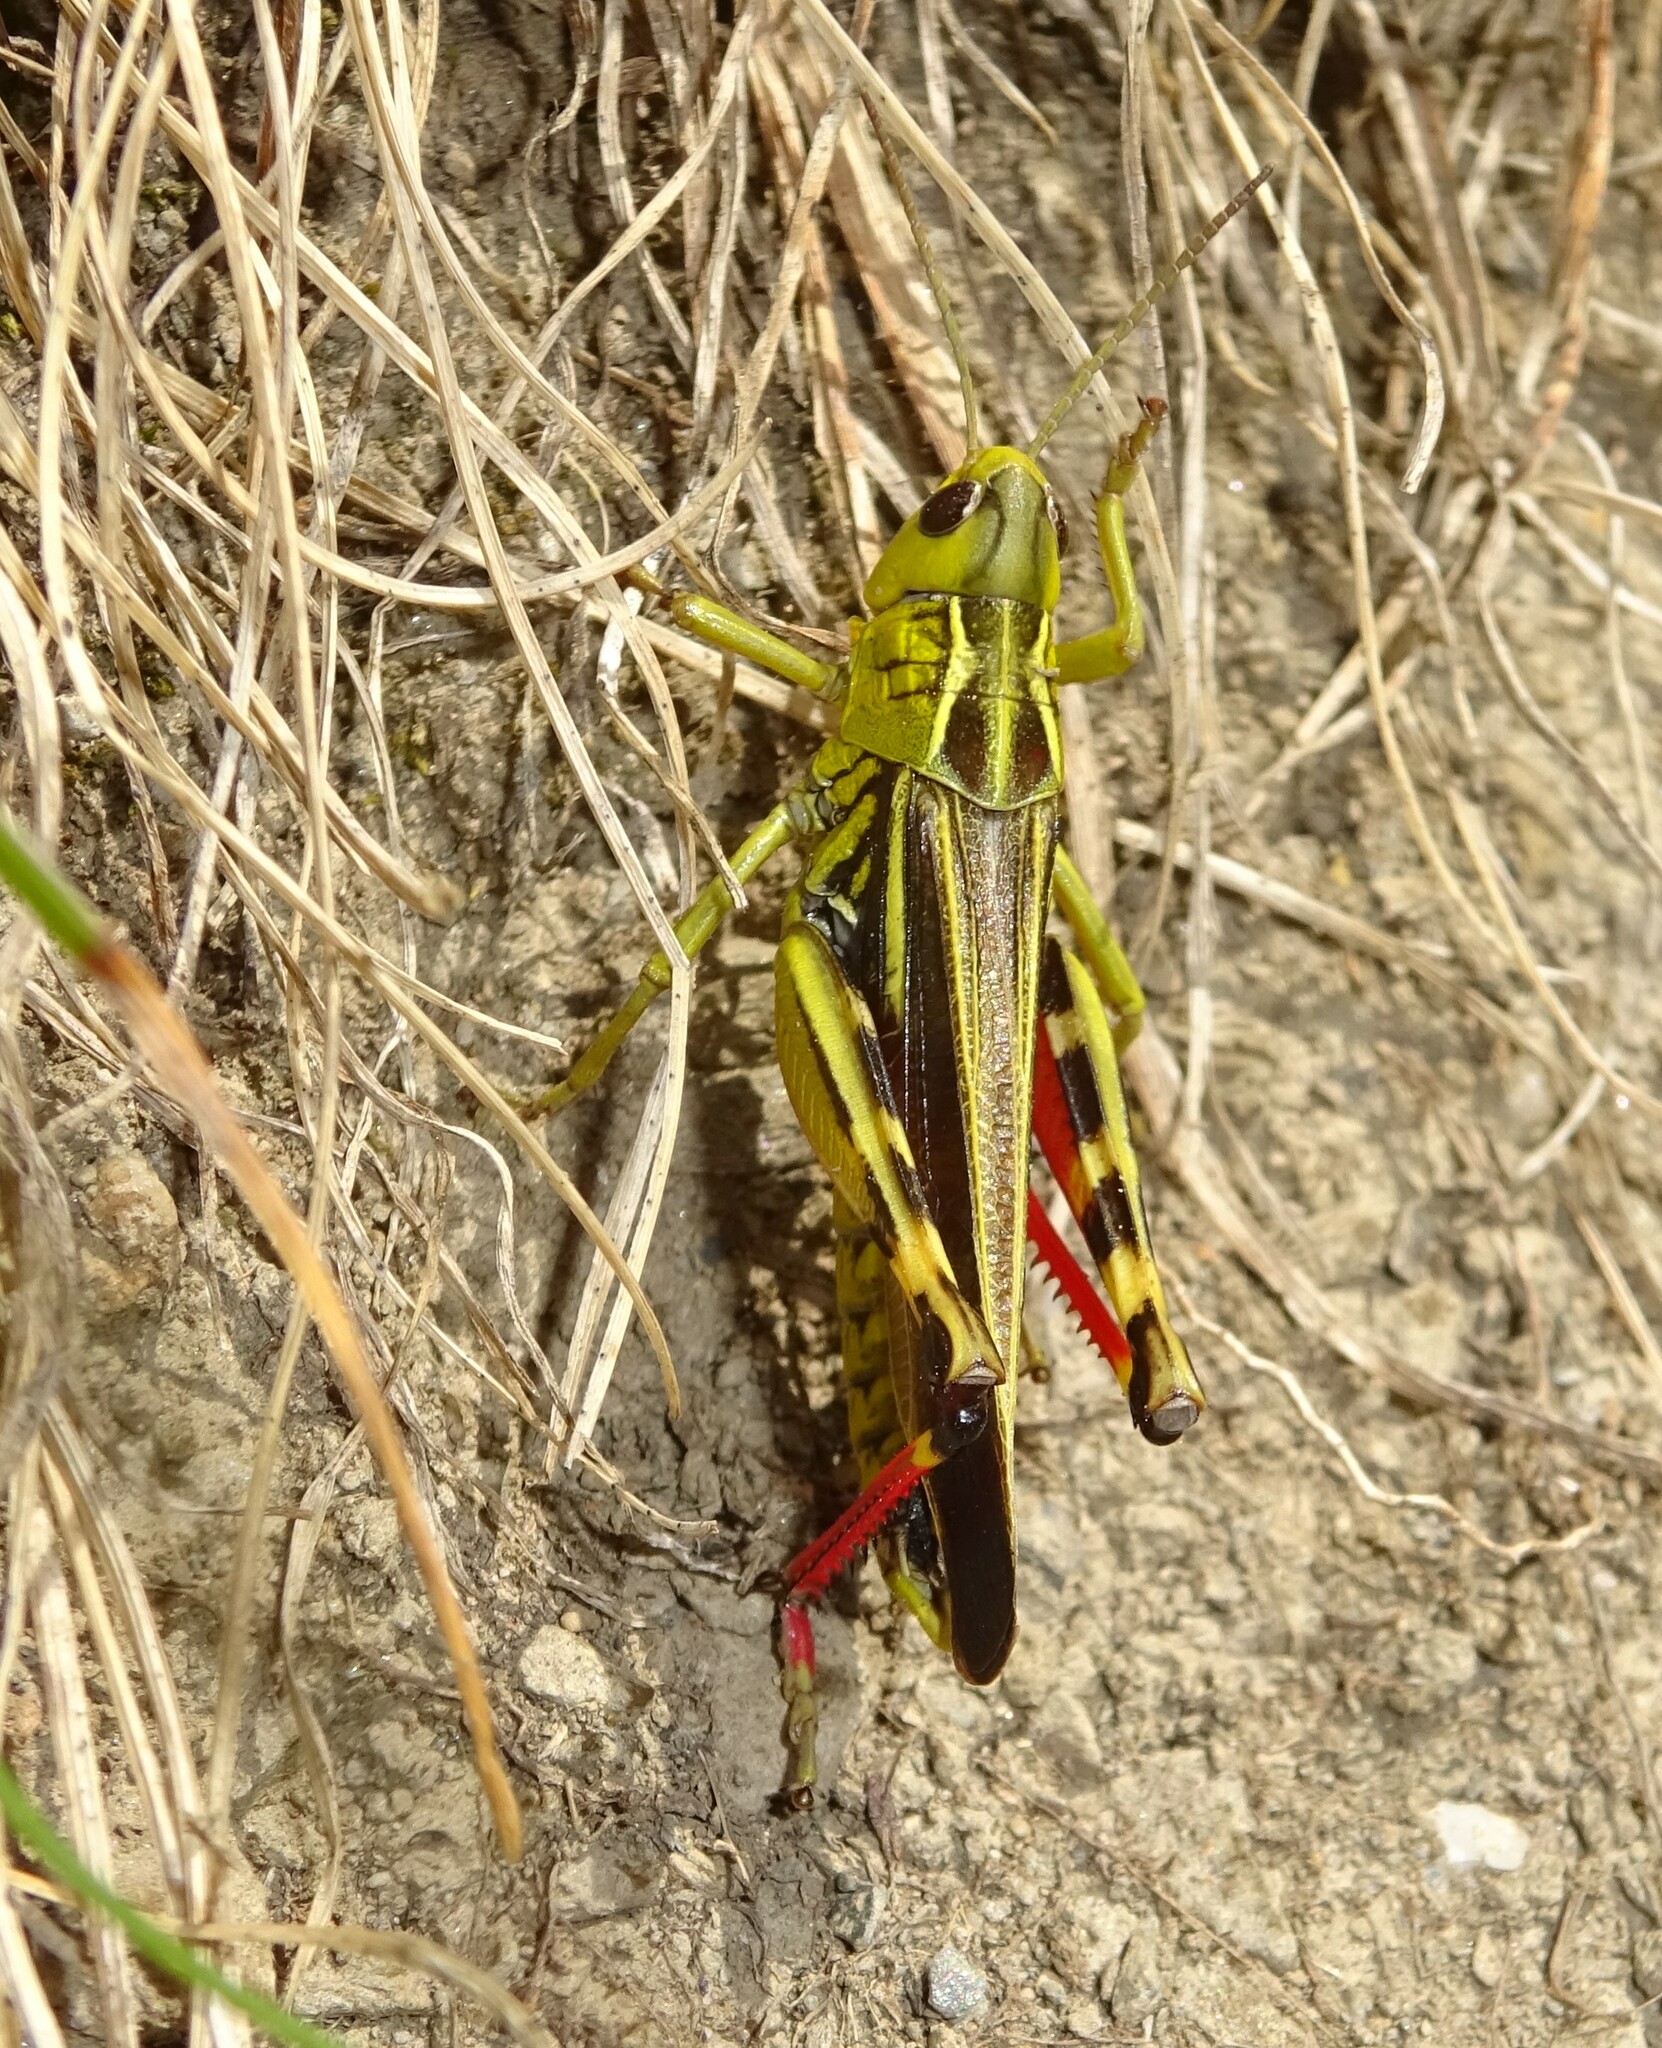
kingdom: Animalia
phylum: Arthropoda
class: Insecta
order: Orthoptera
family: Acrididae
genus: Arcyptera
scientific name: Arcyptera fusca
